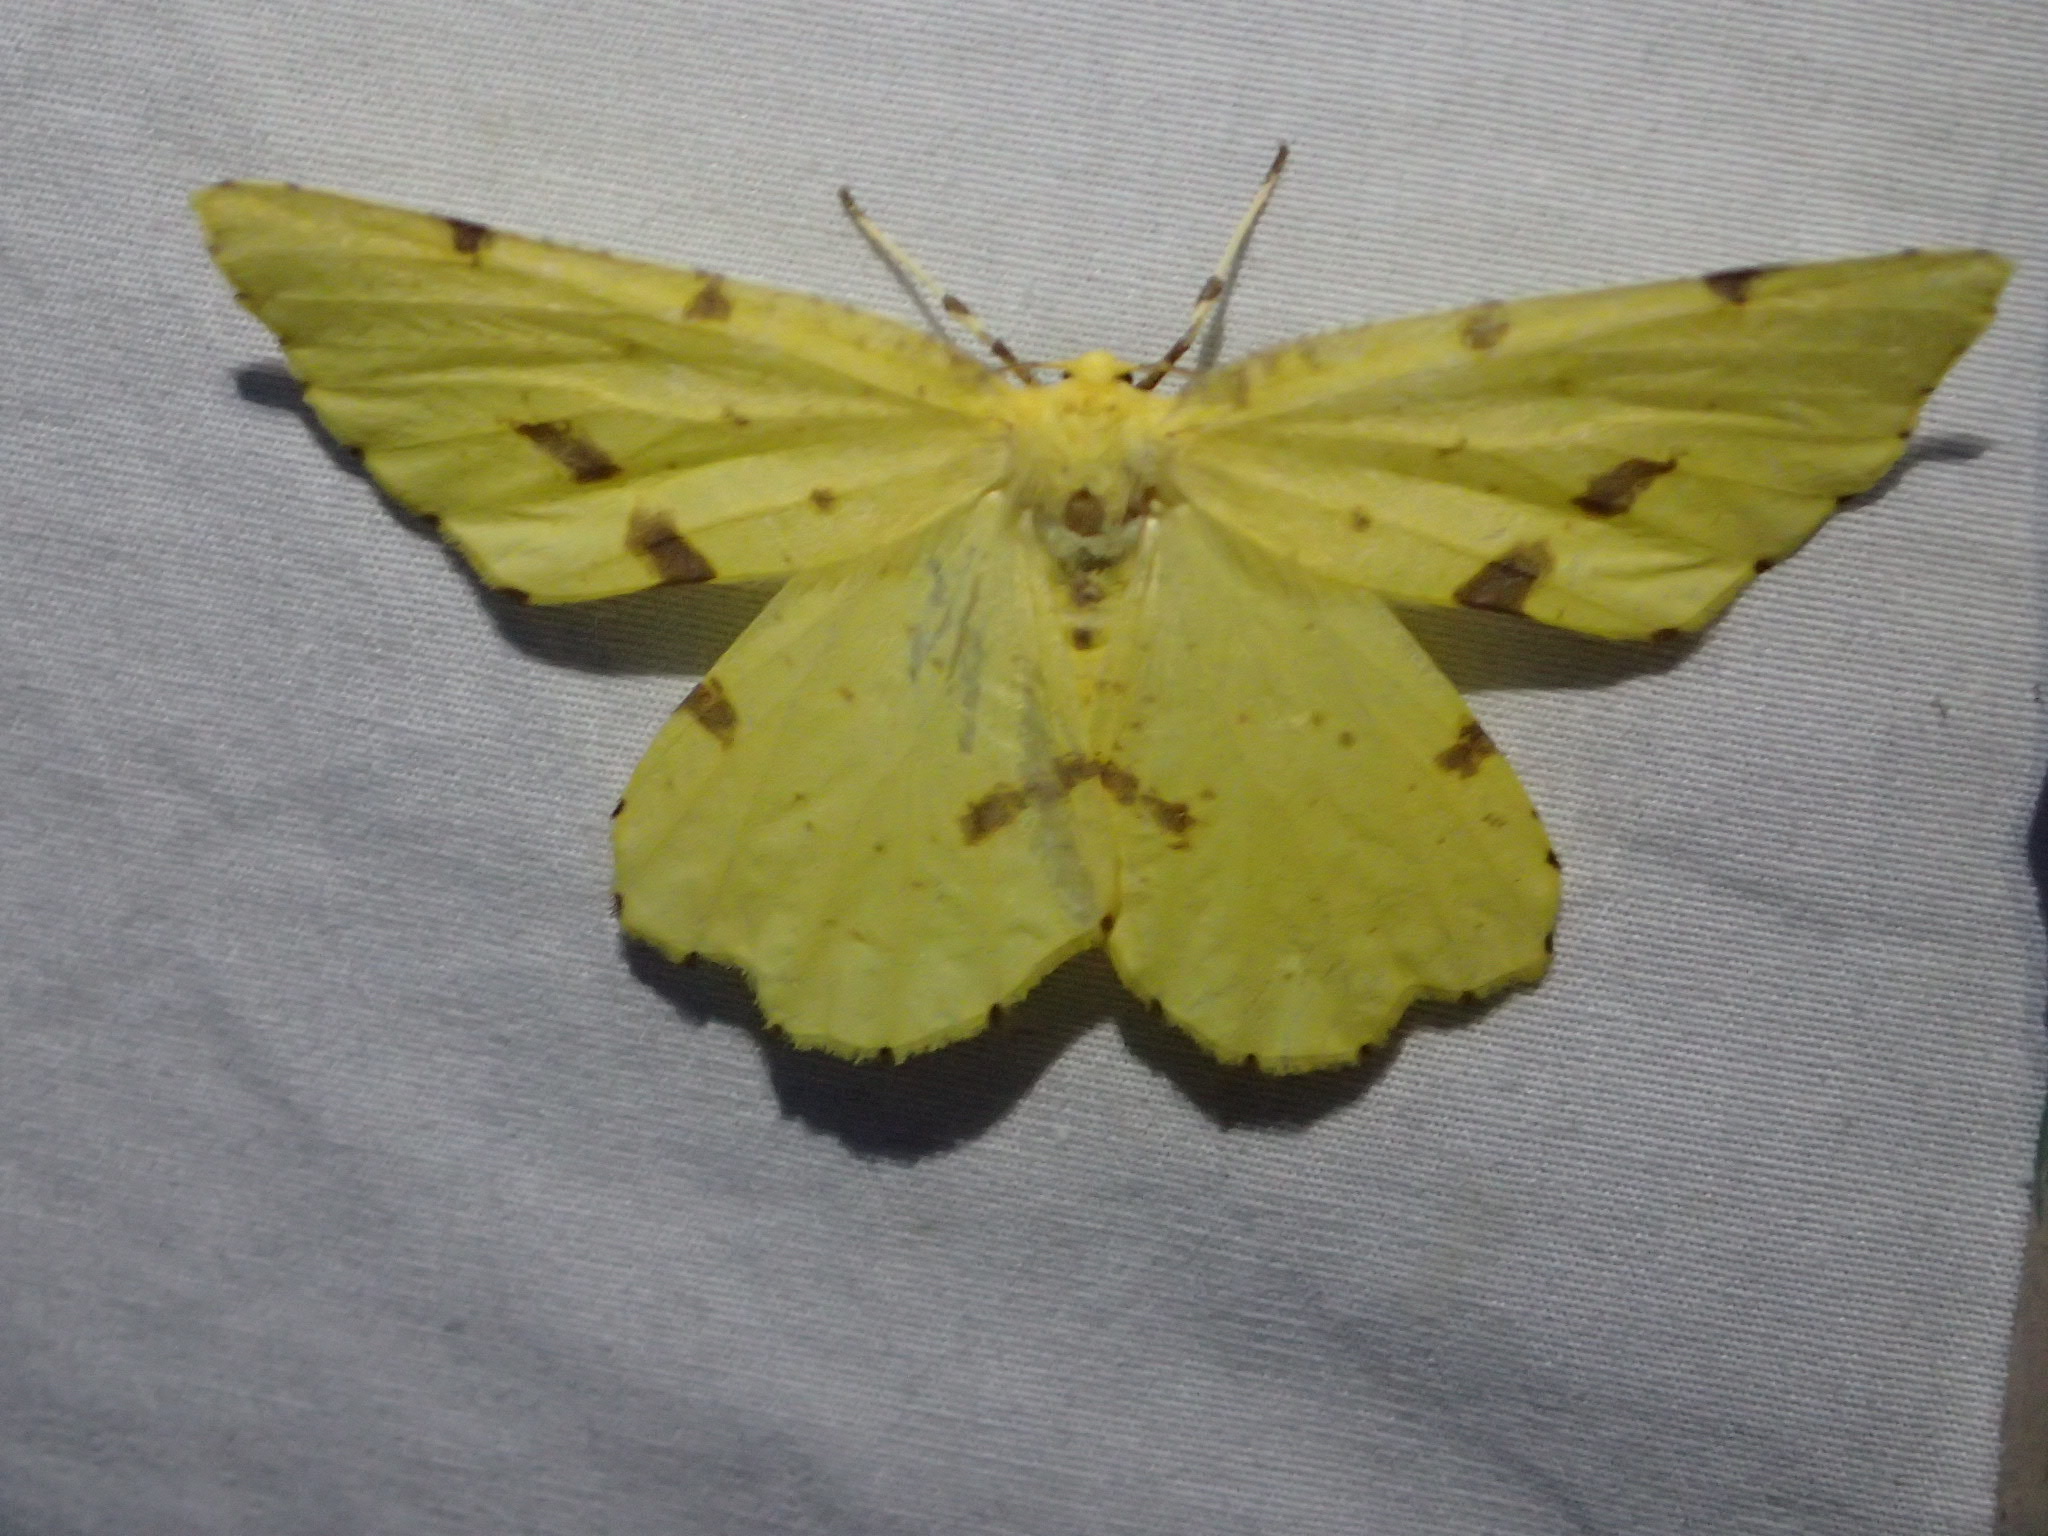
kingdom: Animalia
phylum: Arthropoda
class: Insecta
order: Lepidoptera
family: Geometridae
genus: Xanthotype
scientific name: Xanthotype
